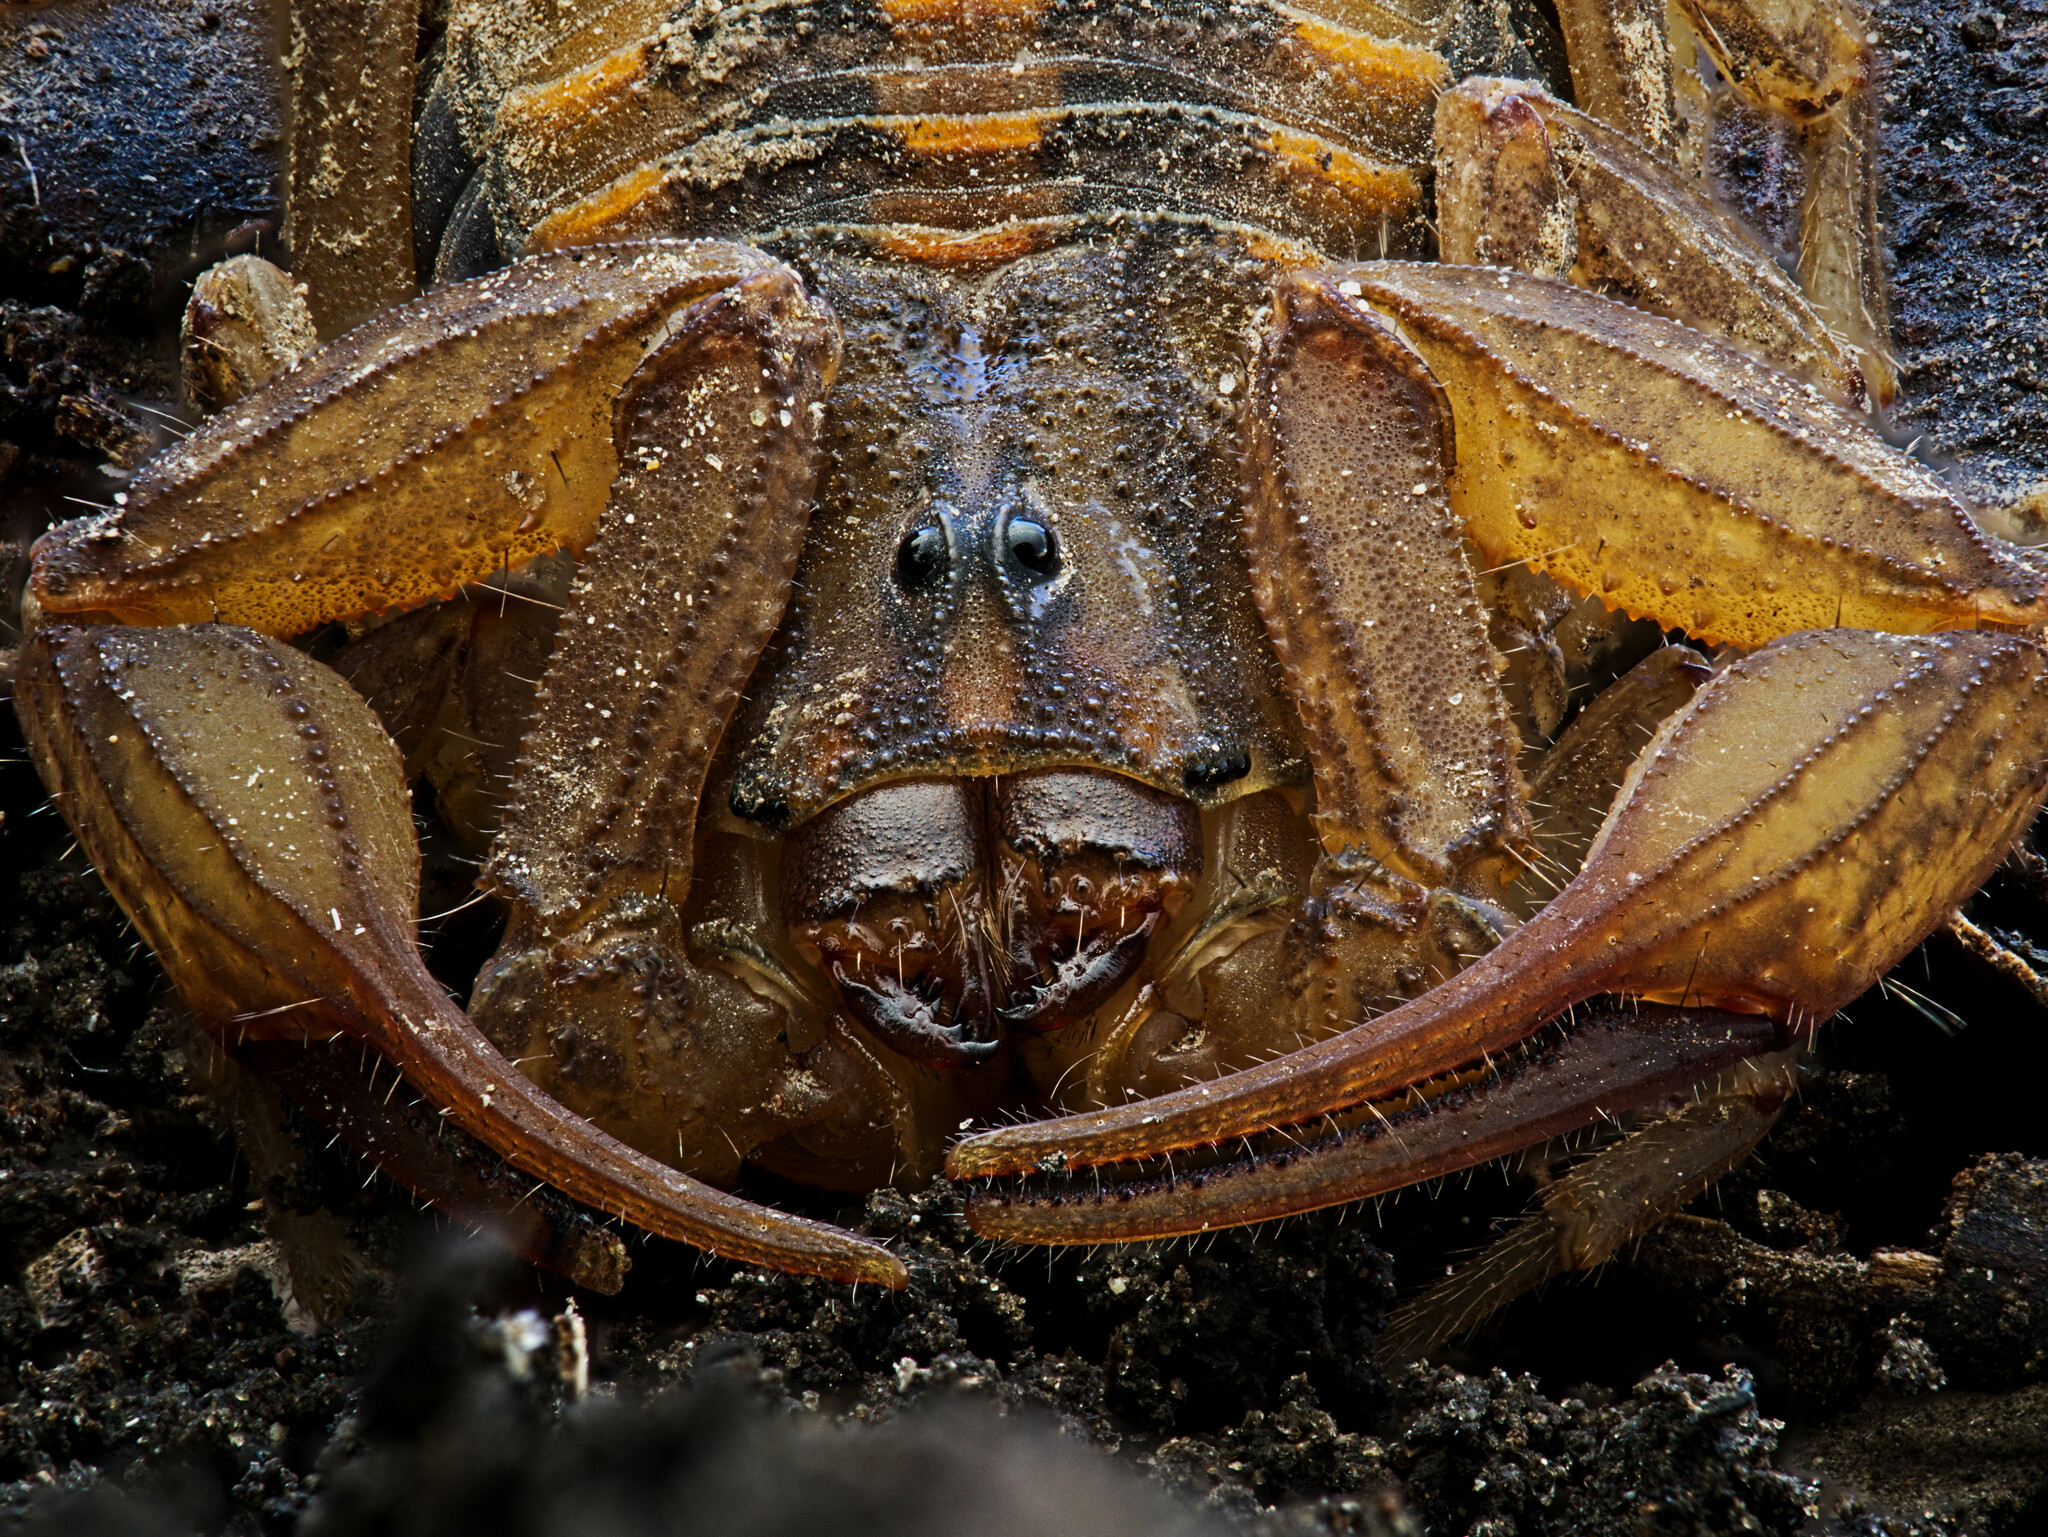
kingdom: Animalia
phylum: Arthropoda
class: Arachnida
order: Scorpiones
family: Buthidae
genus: Centruroides
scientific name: Centruroides limpidus
